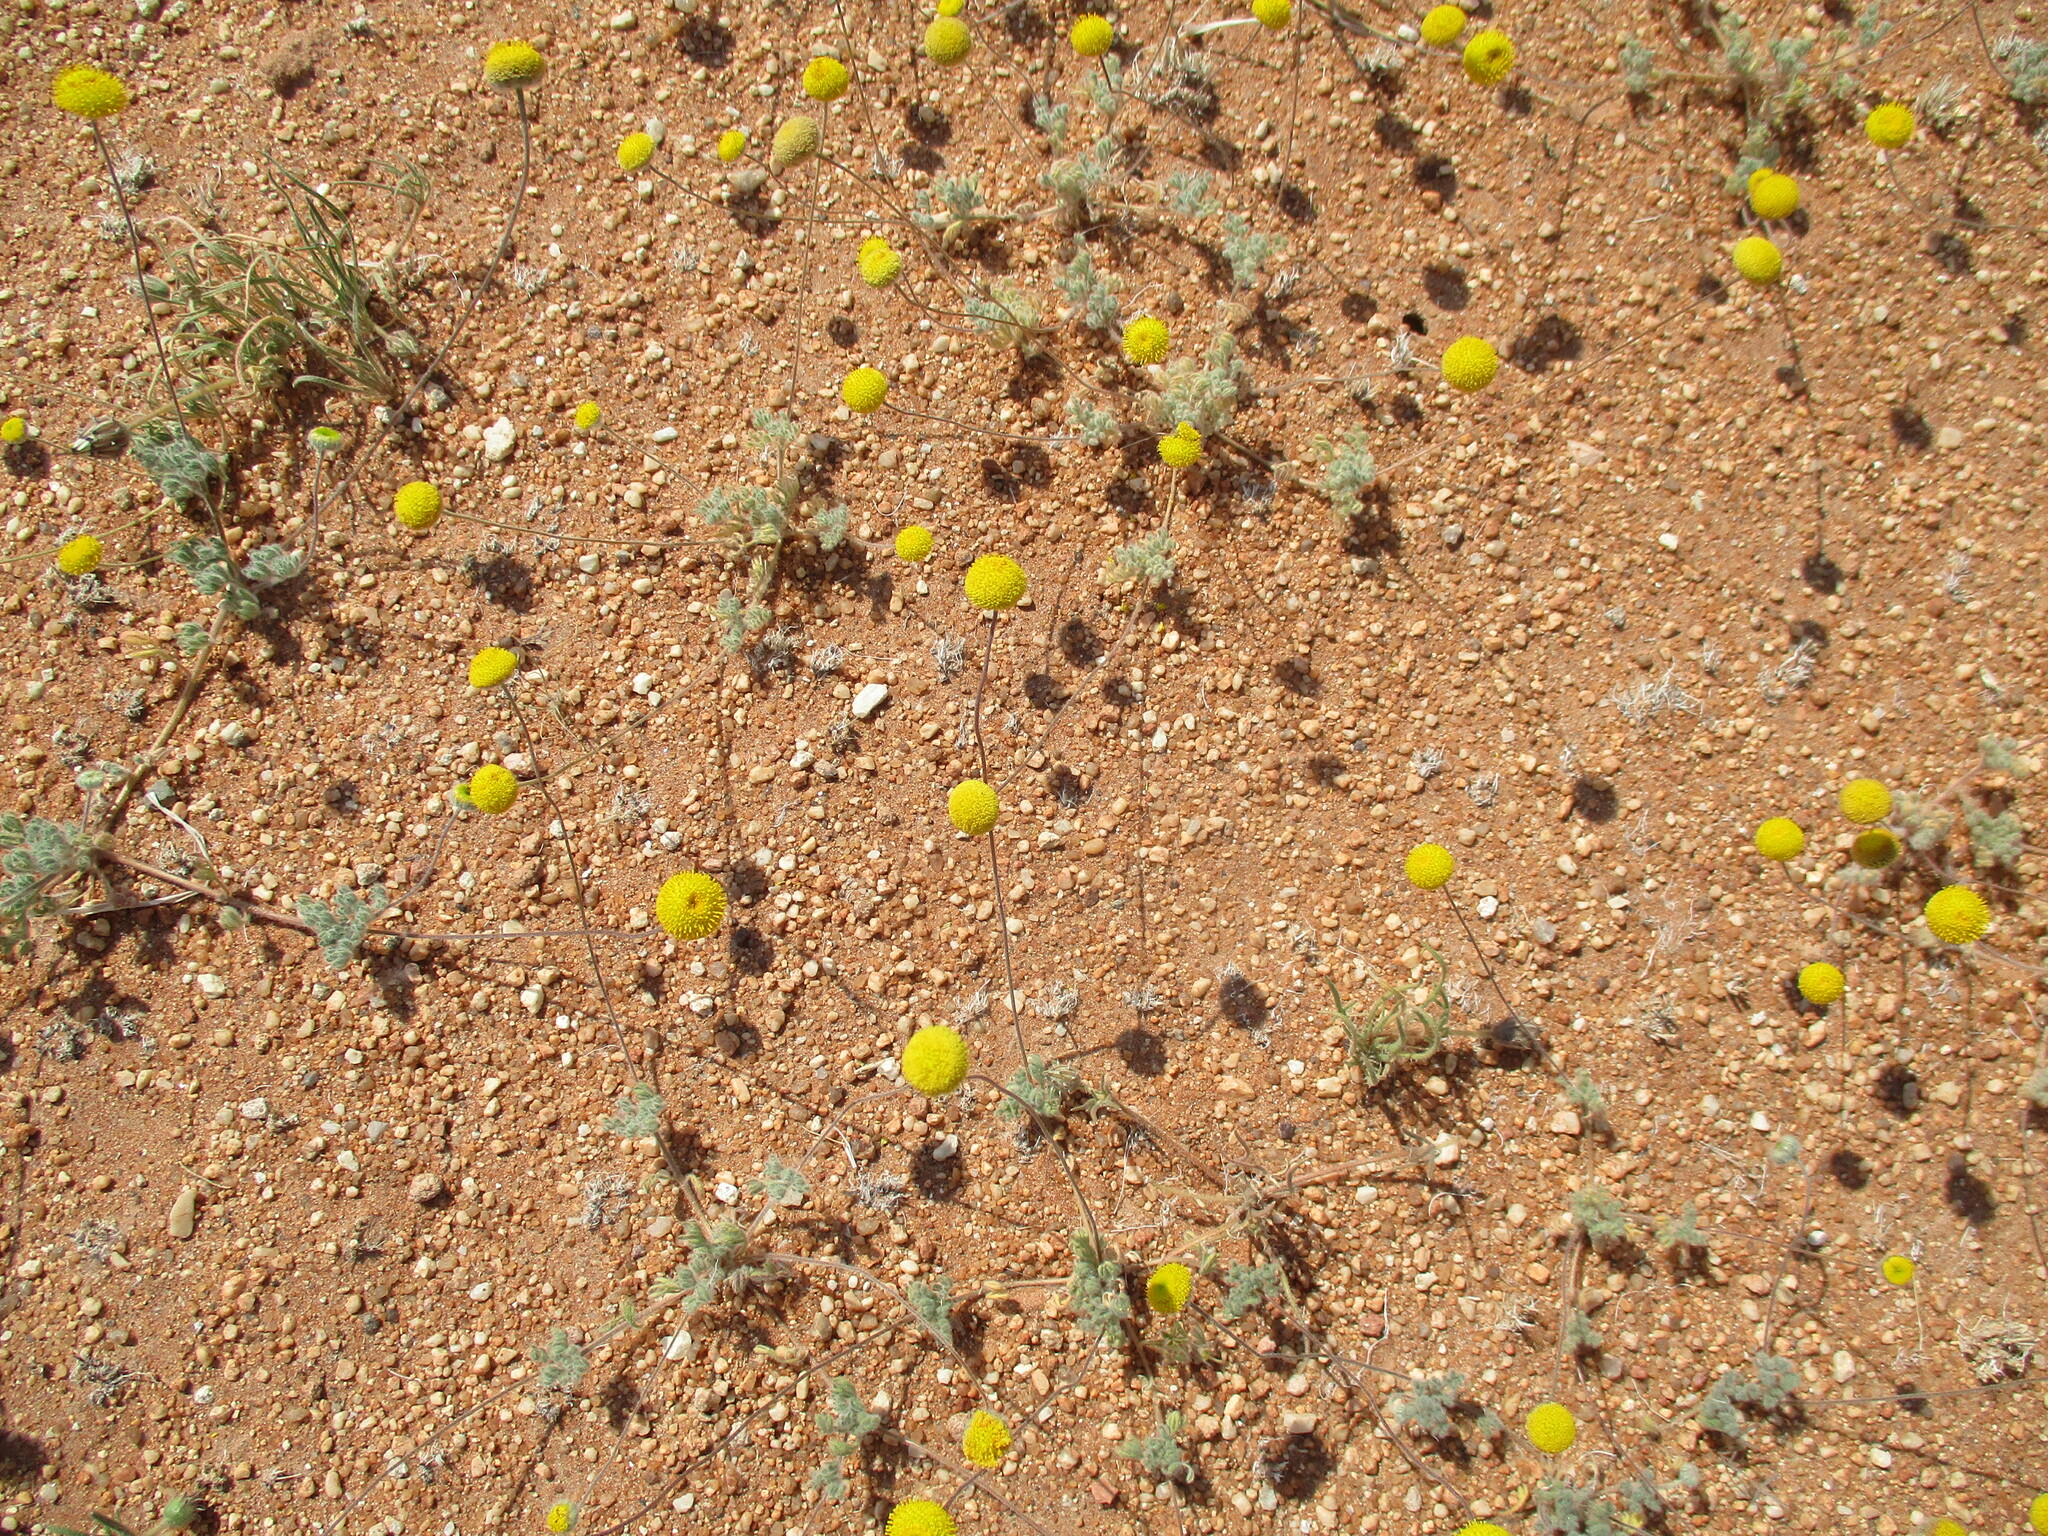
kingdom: Plantae
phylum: Tracheophyta
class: Magnoliopsida
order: Asterales
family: Asteraceae
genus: Foveolina
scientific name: Foveolina dichotoma
